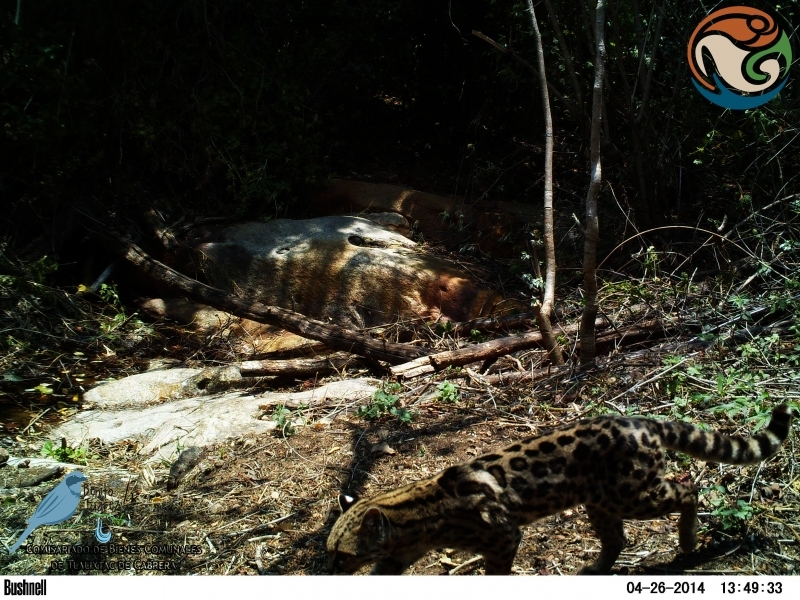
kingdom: Animalia
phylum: Chordata
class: Mammalia
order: Carnivora
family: Felidae
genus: Leopardus
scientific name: Leopardus wiedii
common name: Margay
